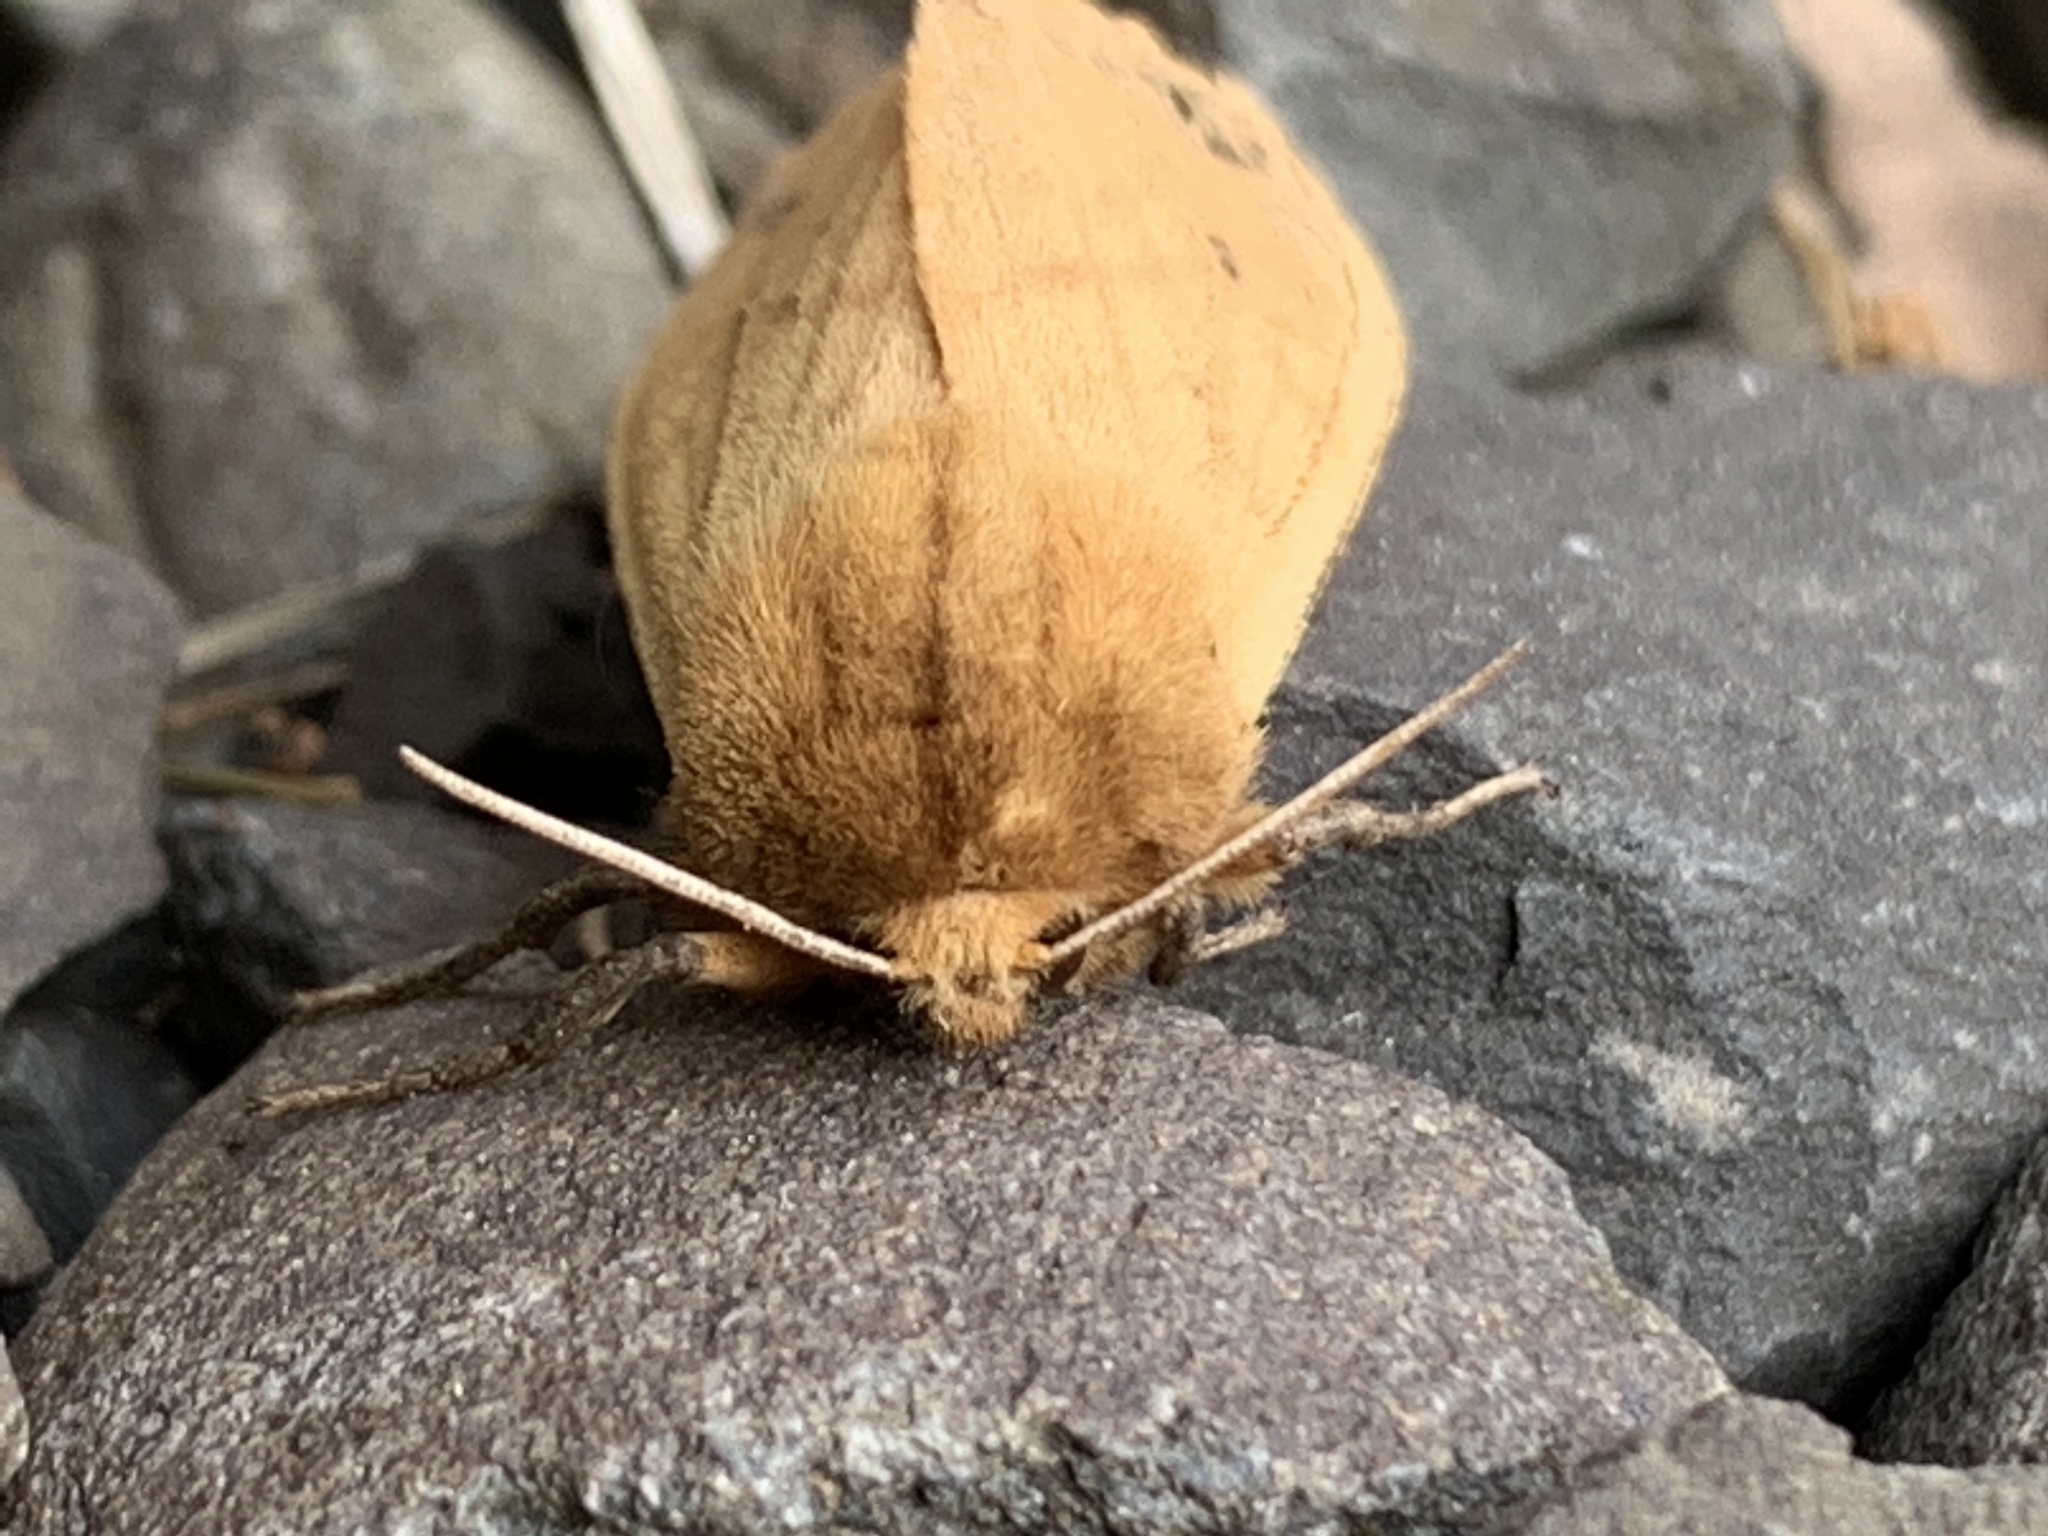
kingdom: Animalia
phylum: Arthropoda
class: Insecta
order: Lepidoptera
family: Erebidae
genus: Pyrrharctia
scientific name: Pyrrharctia isabella
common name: Isabella tiger moth
